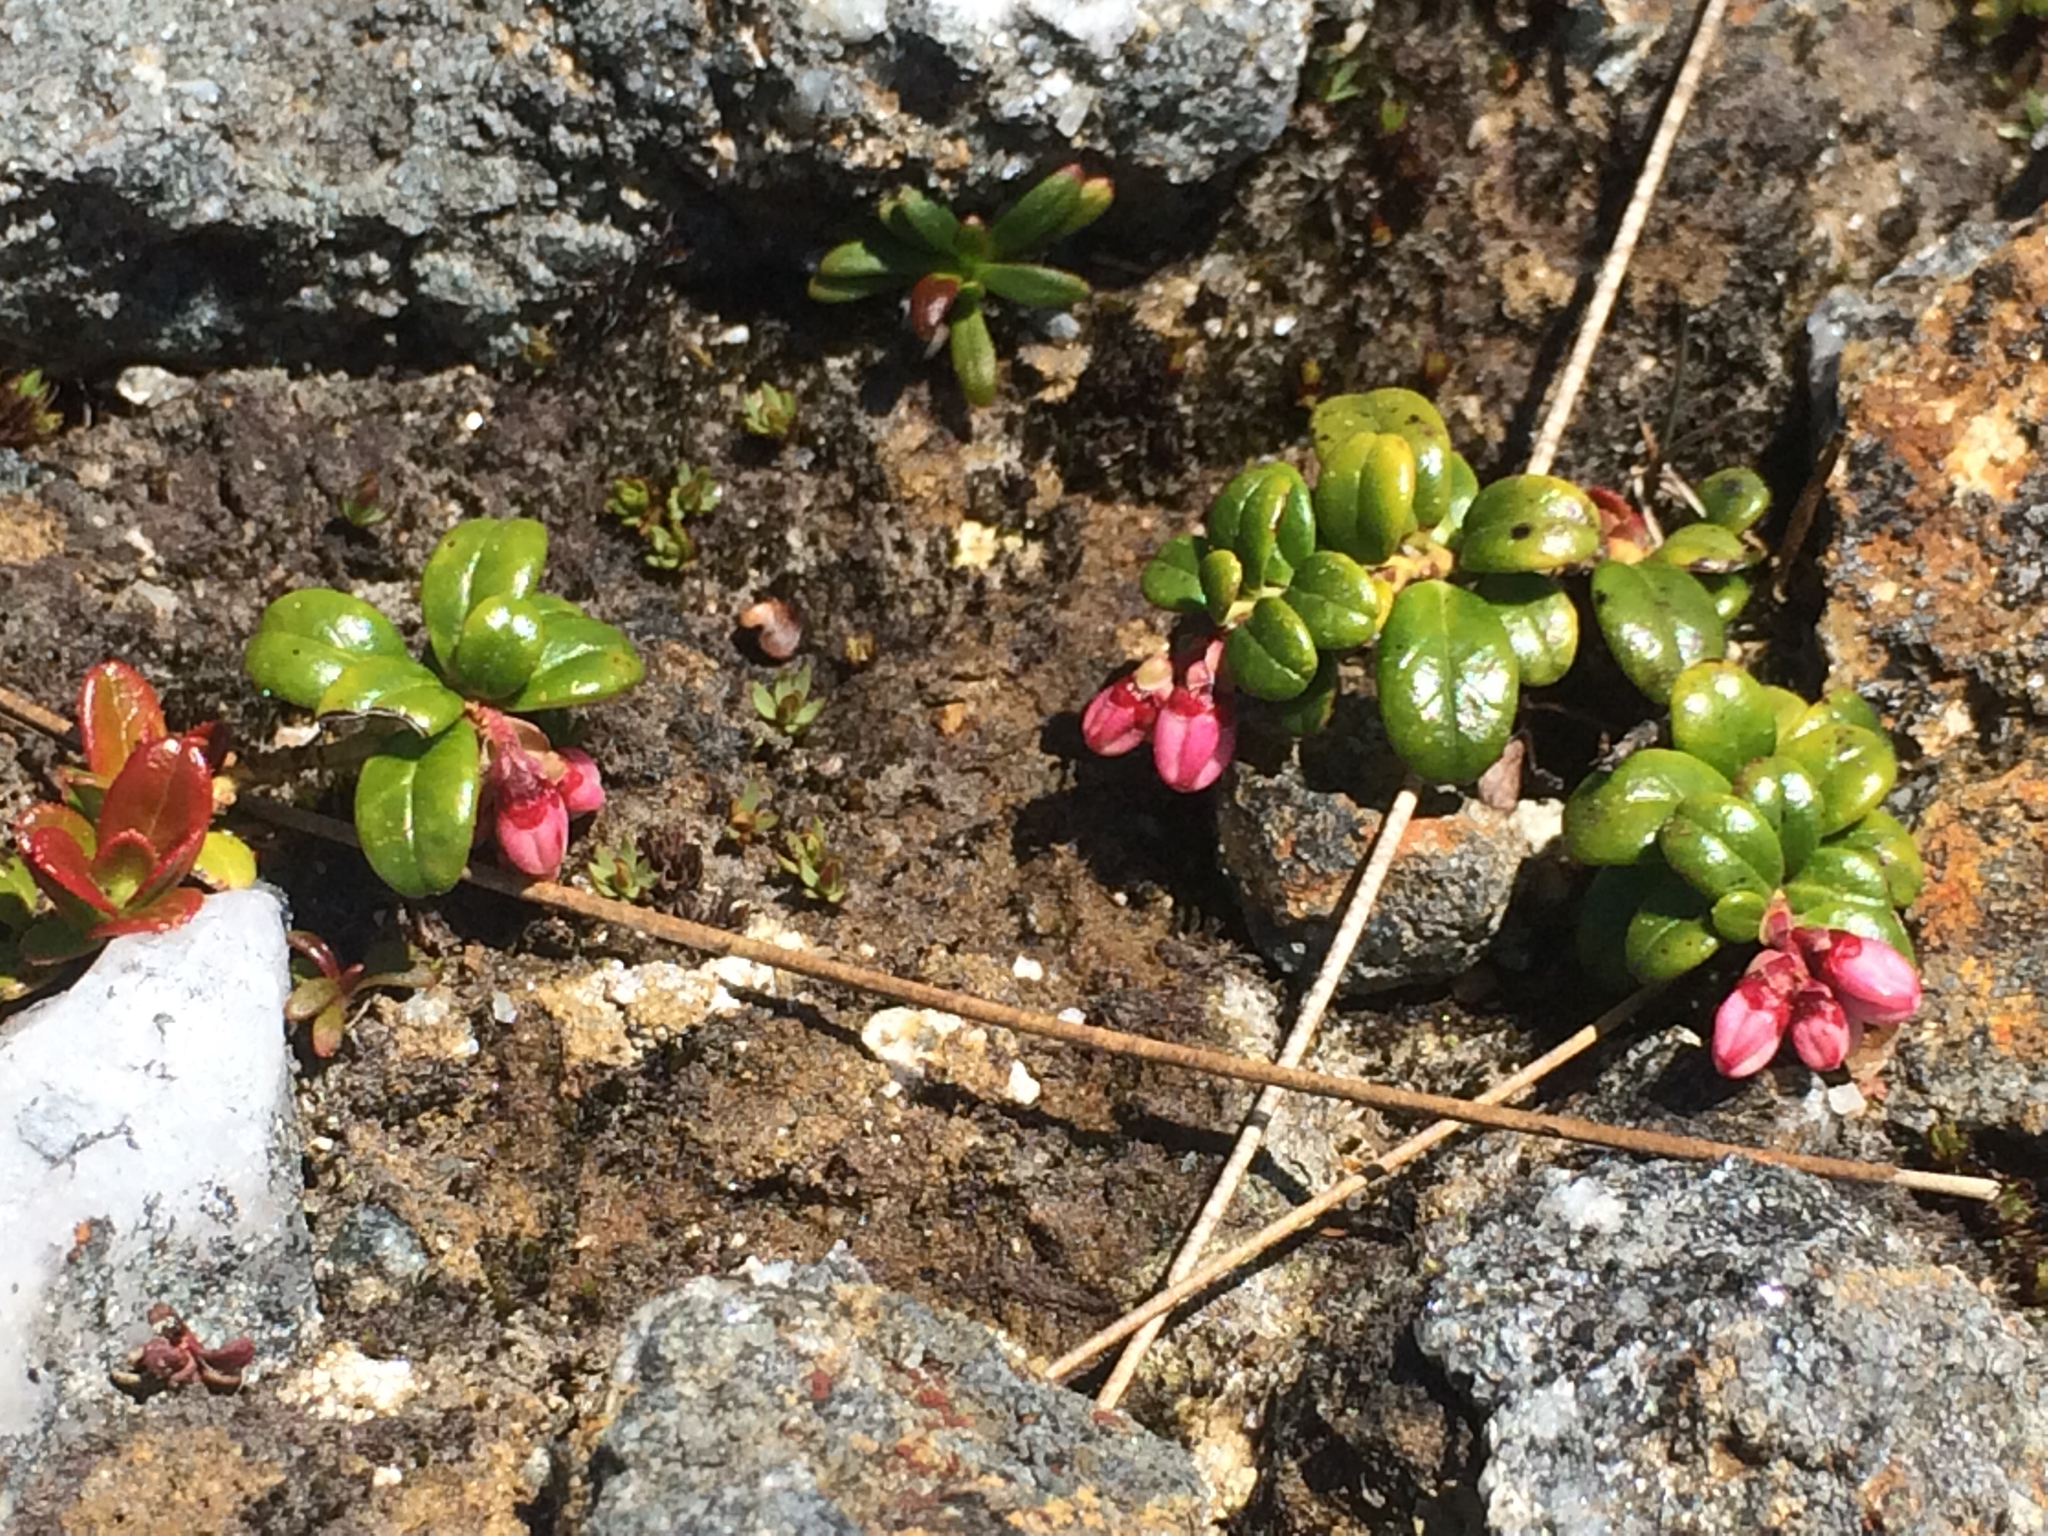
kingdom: Plantae
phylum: Tracheophyta
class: Magnoliopsida
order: Ericales
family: Ericaceae
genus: Vaccinium
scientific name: Vaccinium vitis-idaea
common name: Cowberry
